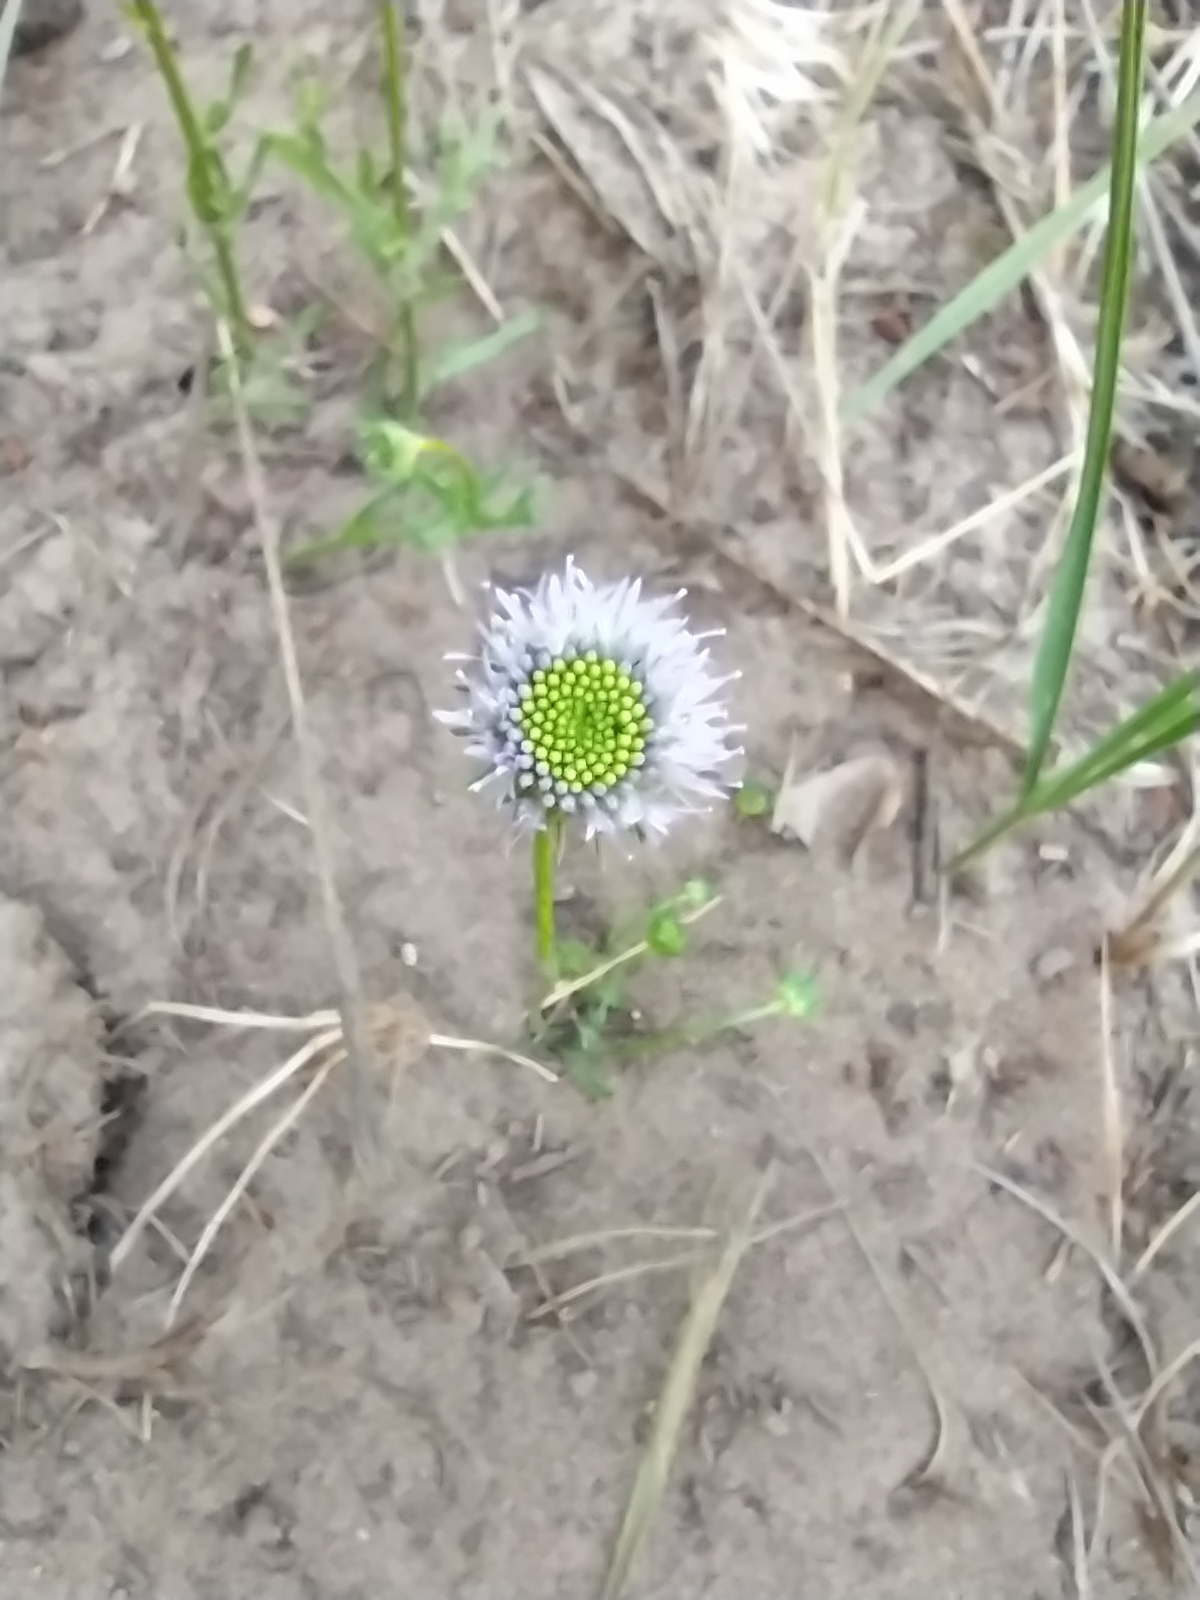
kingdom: Plantae
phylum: Tracheophyta
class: Magnoliopsida
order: Asterales
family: Campanulaceae
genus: Jasione
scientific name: Jasione montana
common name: Sheep's-bit
